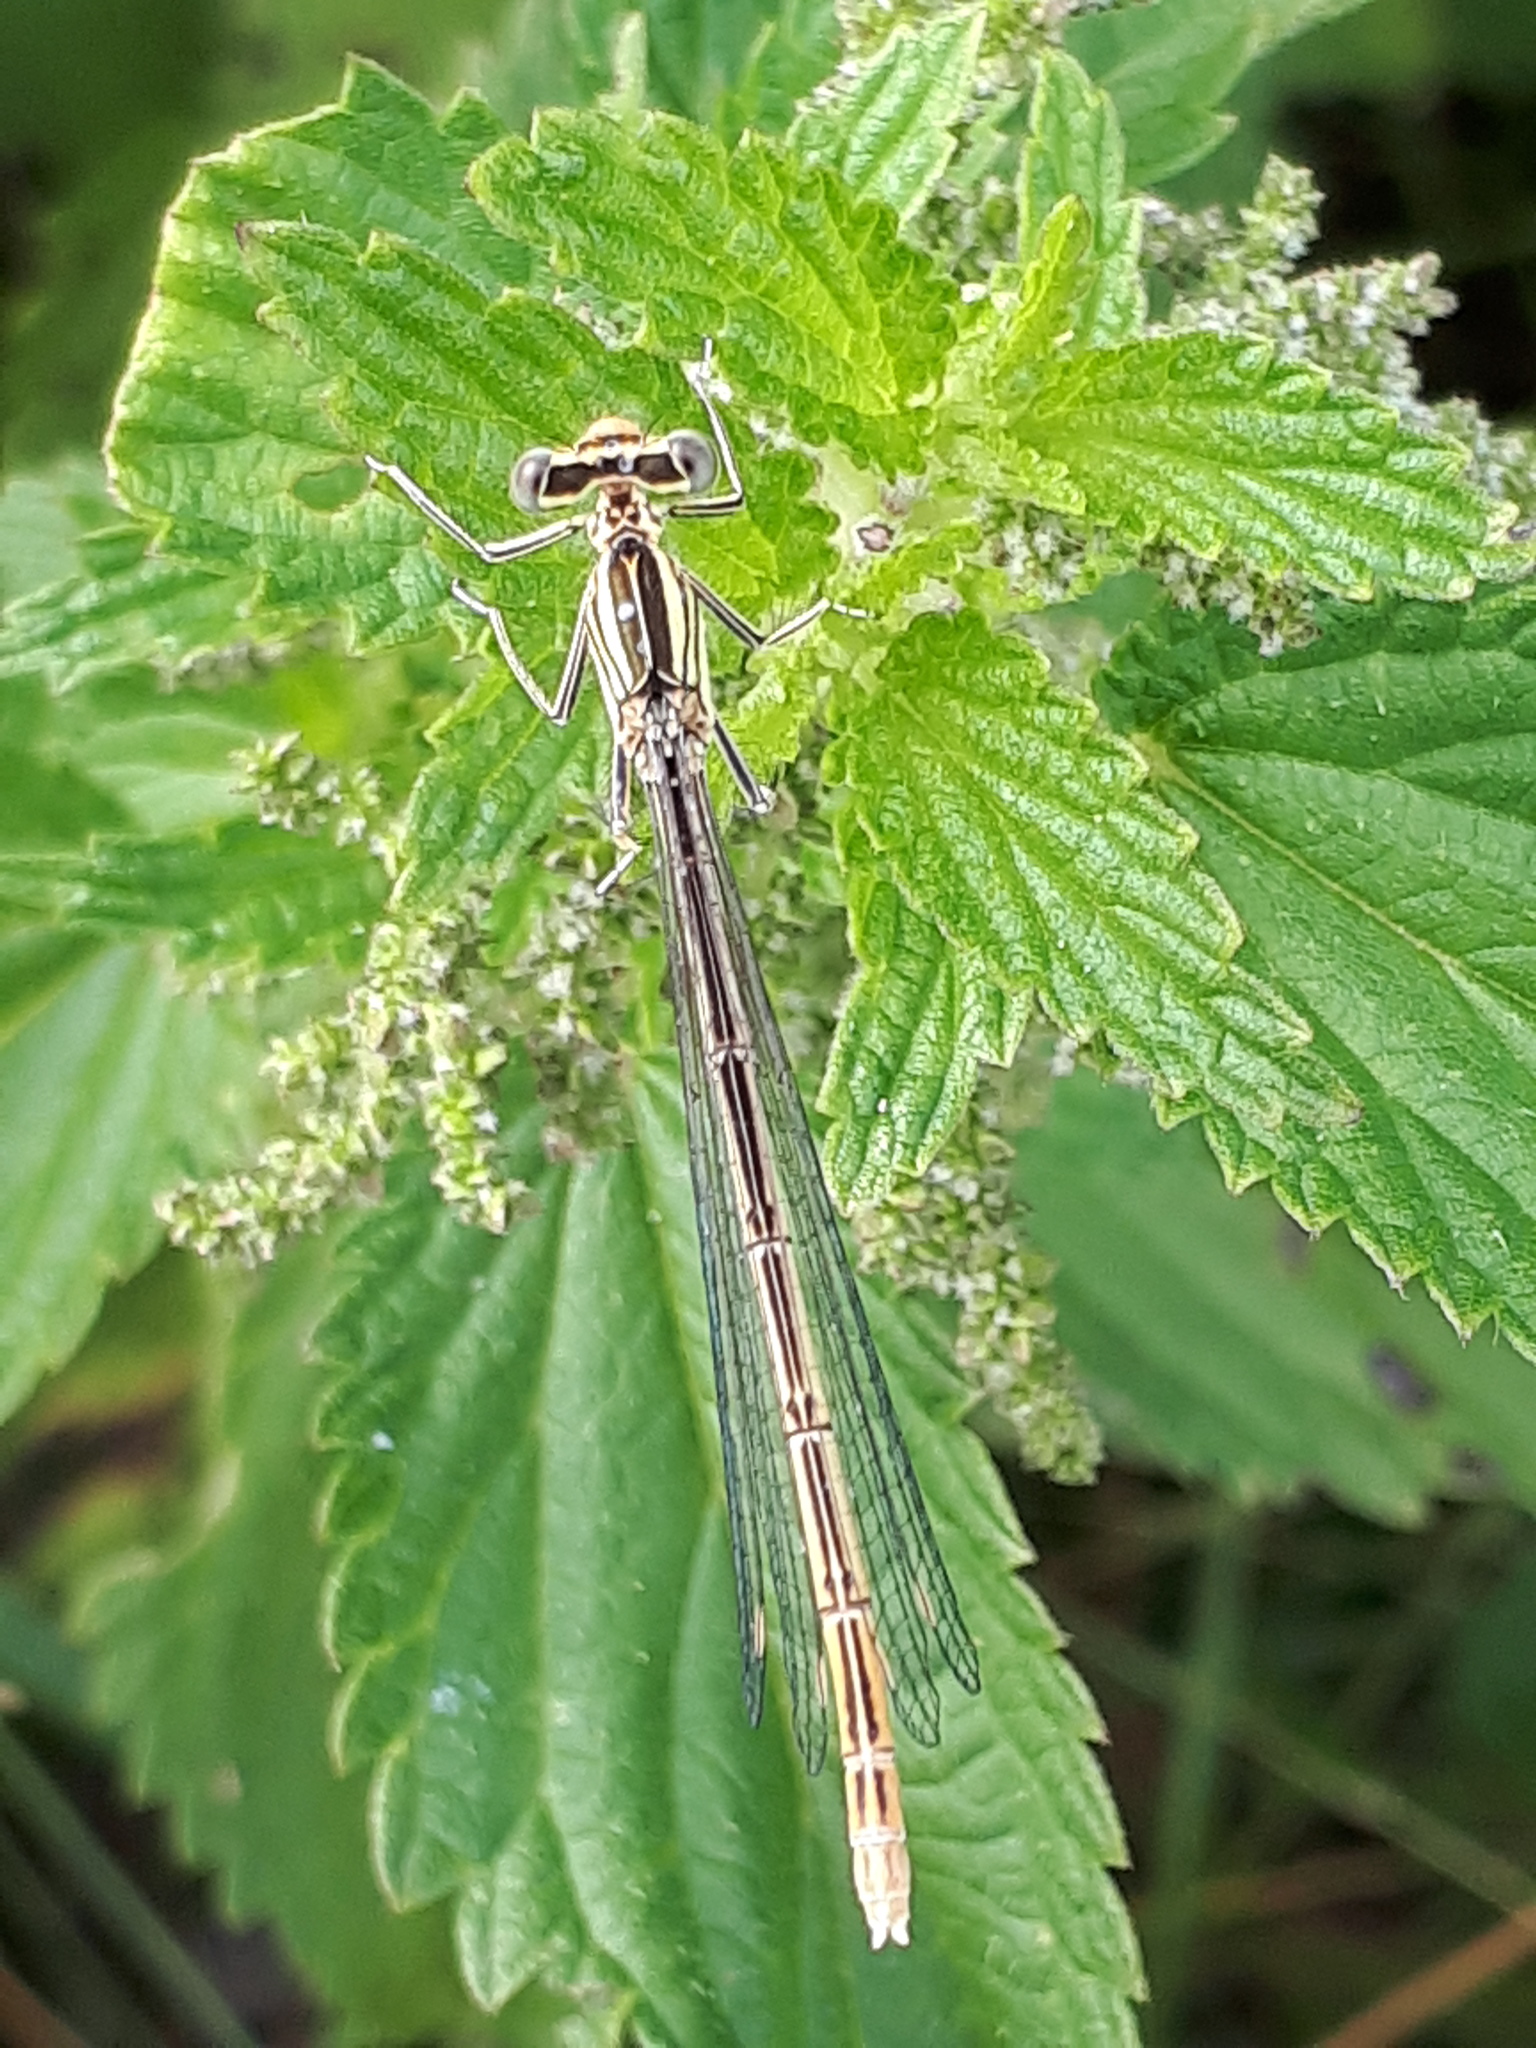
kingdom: Animalia
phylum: Arthropoda
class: Insecta
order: Odonata
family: Platycnemididae
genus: Platycnemis
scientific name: Platycnemis pennipes
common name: White-legged damselfly
